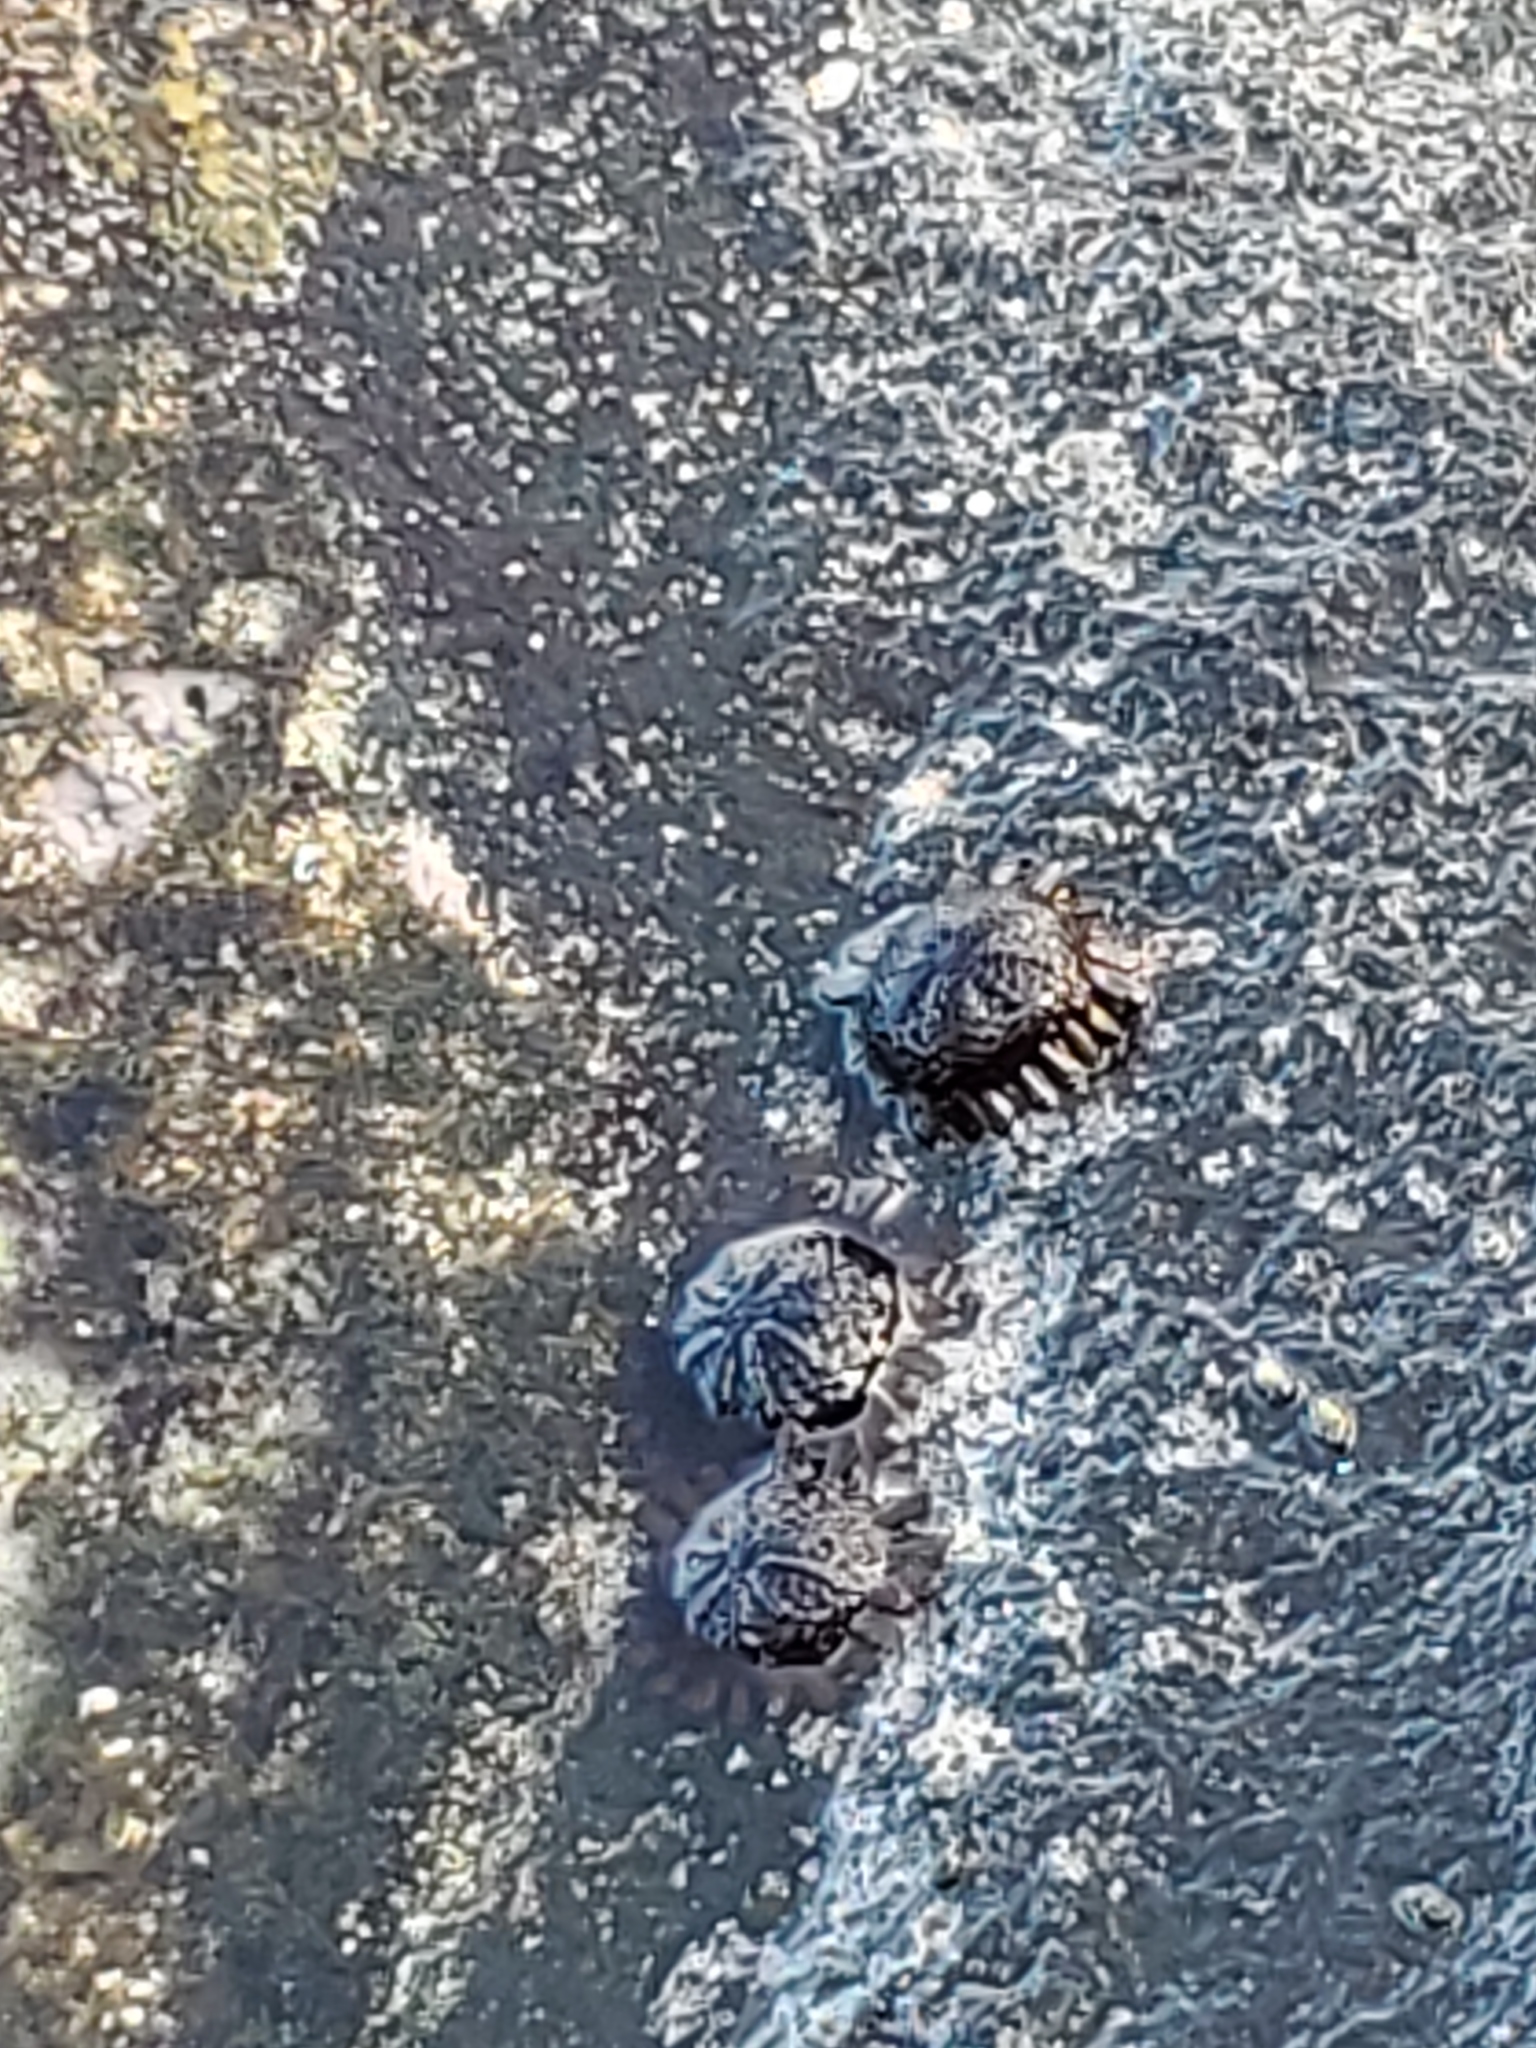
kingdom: Animalia
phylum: Echinodermata
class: Echinoidea
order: Camarodonta
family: Echinometridae
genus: Colobocentrotus
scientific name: Colobocentrotus atratus
